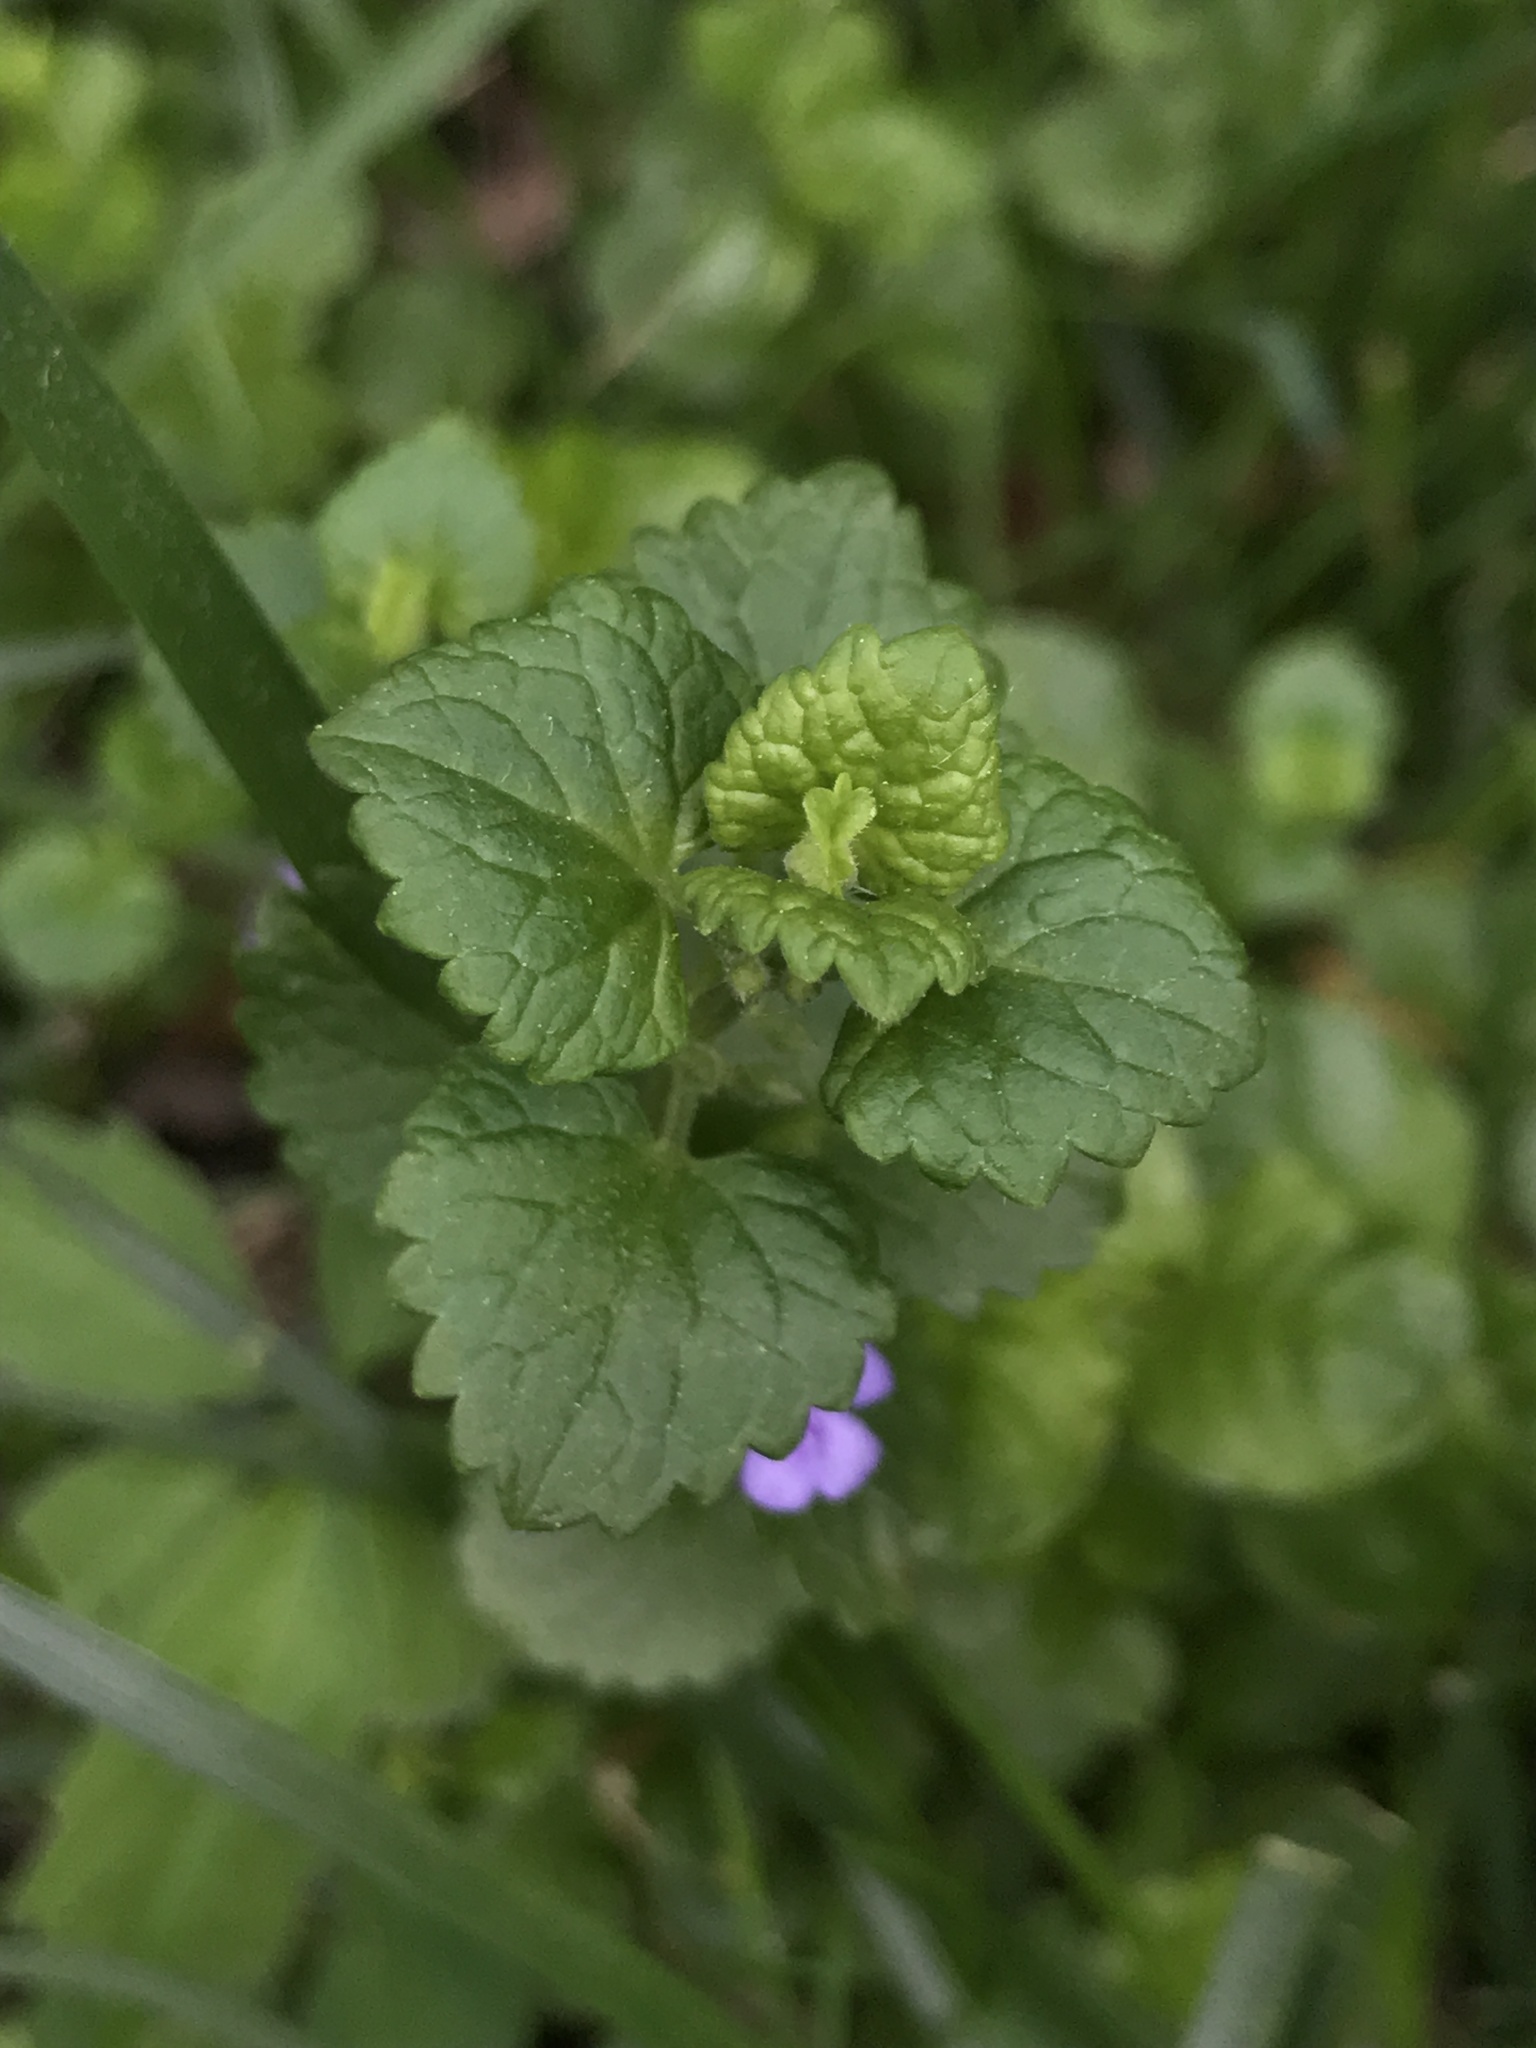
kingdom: Plantae
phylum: Tracheophyta
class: Magnoliopsida
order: Lamiales
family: Lamiaceae
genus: Glechoma
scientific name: Glechoma hederacea
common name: Ground ivy
